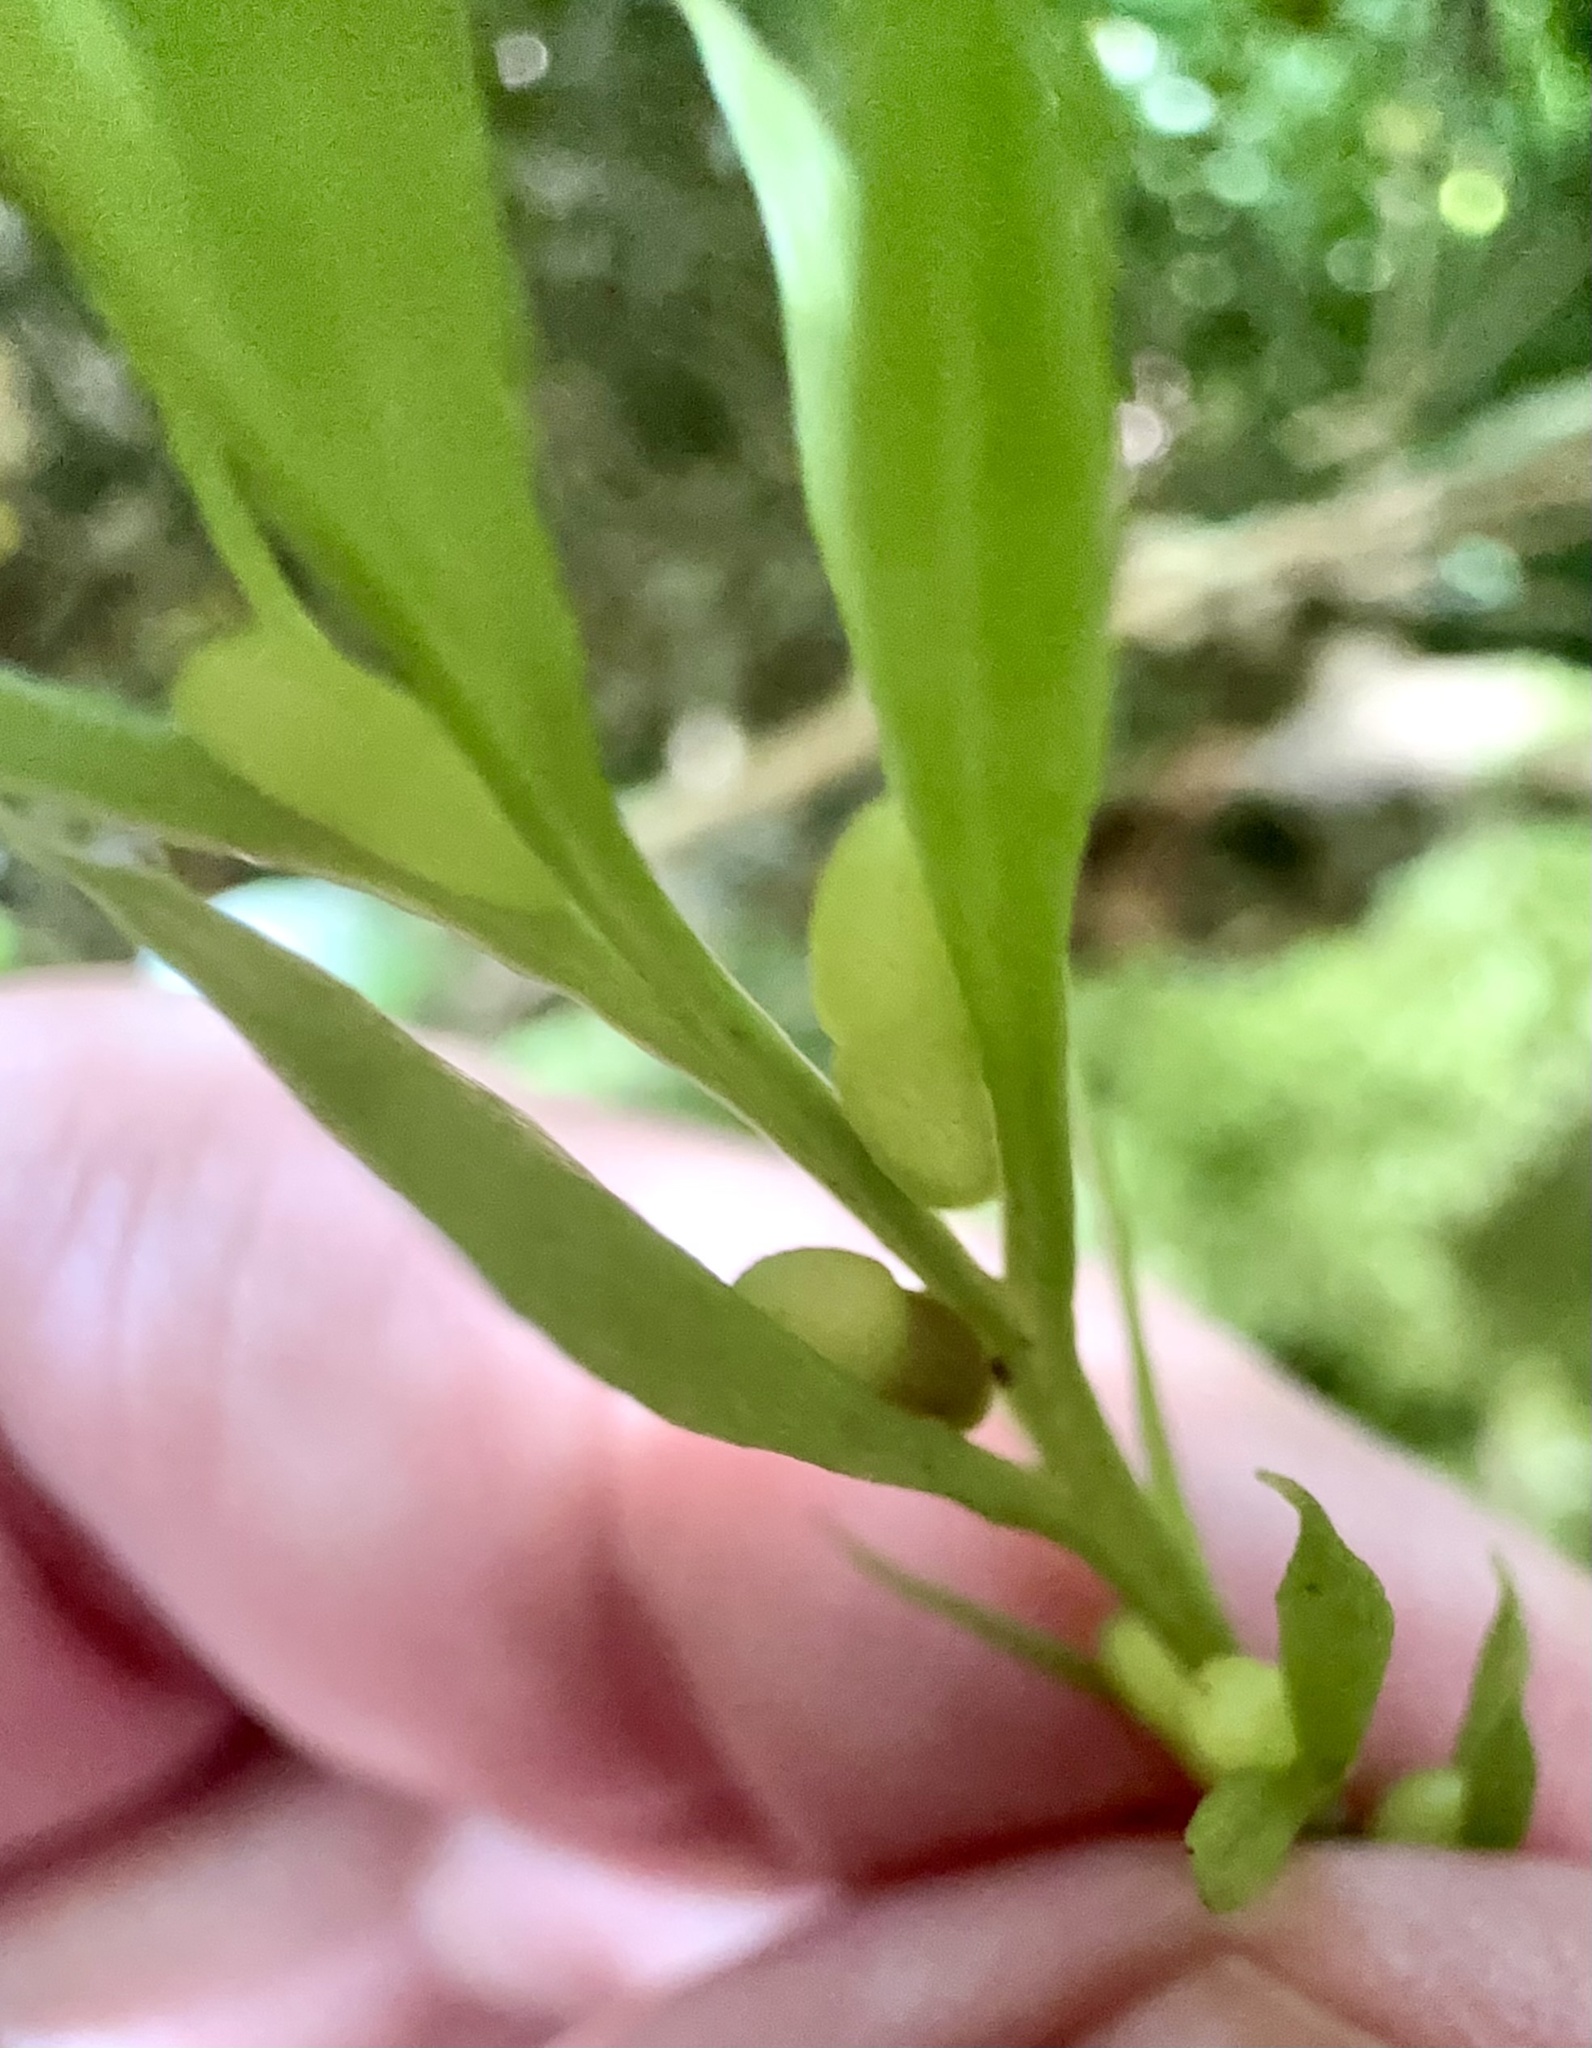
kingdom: Plantae
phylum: Tracheophyta
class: Polypodiopsida
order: Psilotales
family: Psilotaceae
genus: Tmesipteris
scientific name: Tmesipteris elongata
